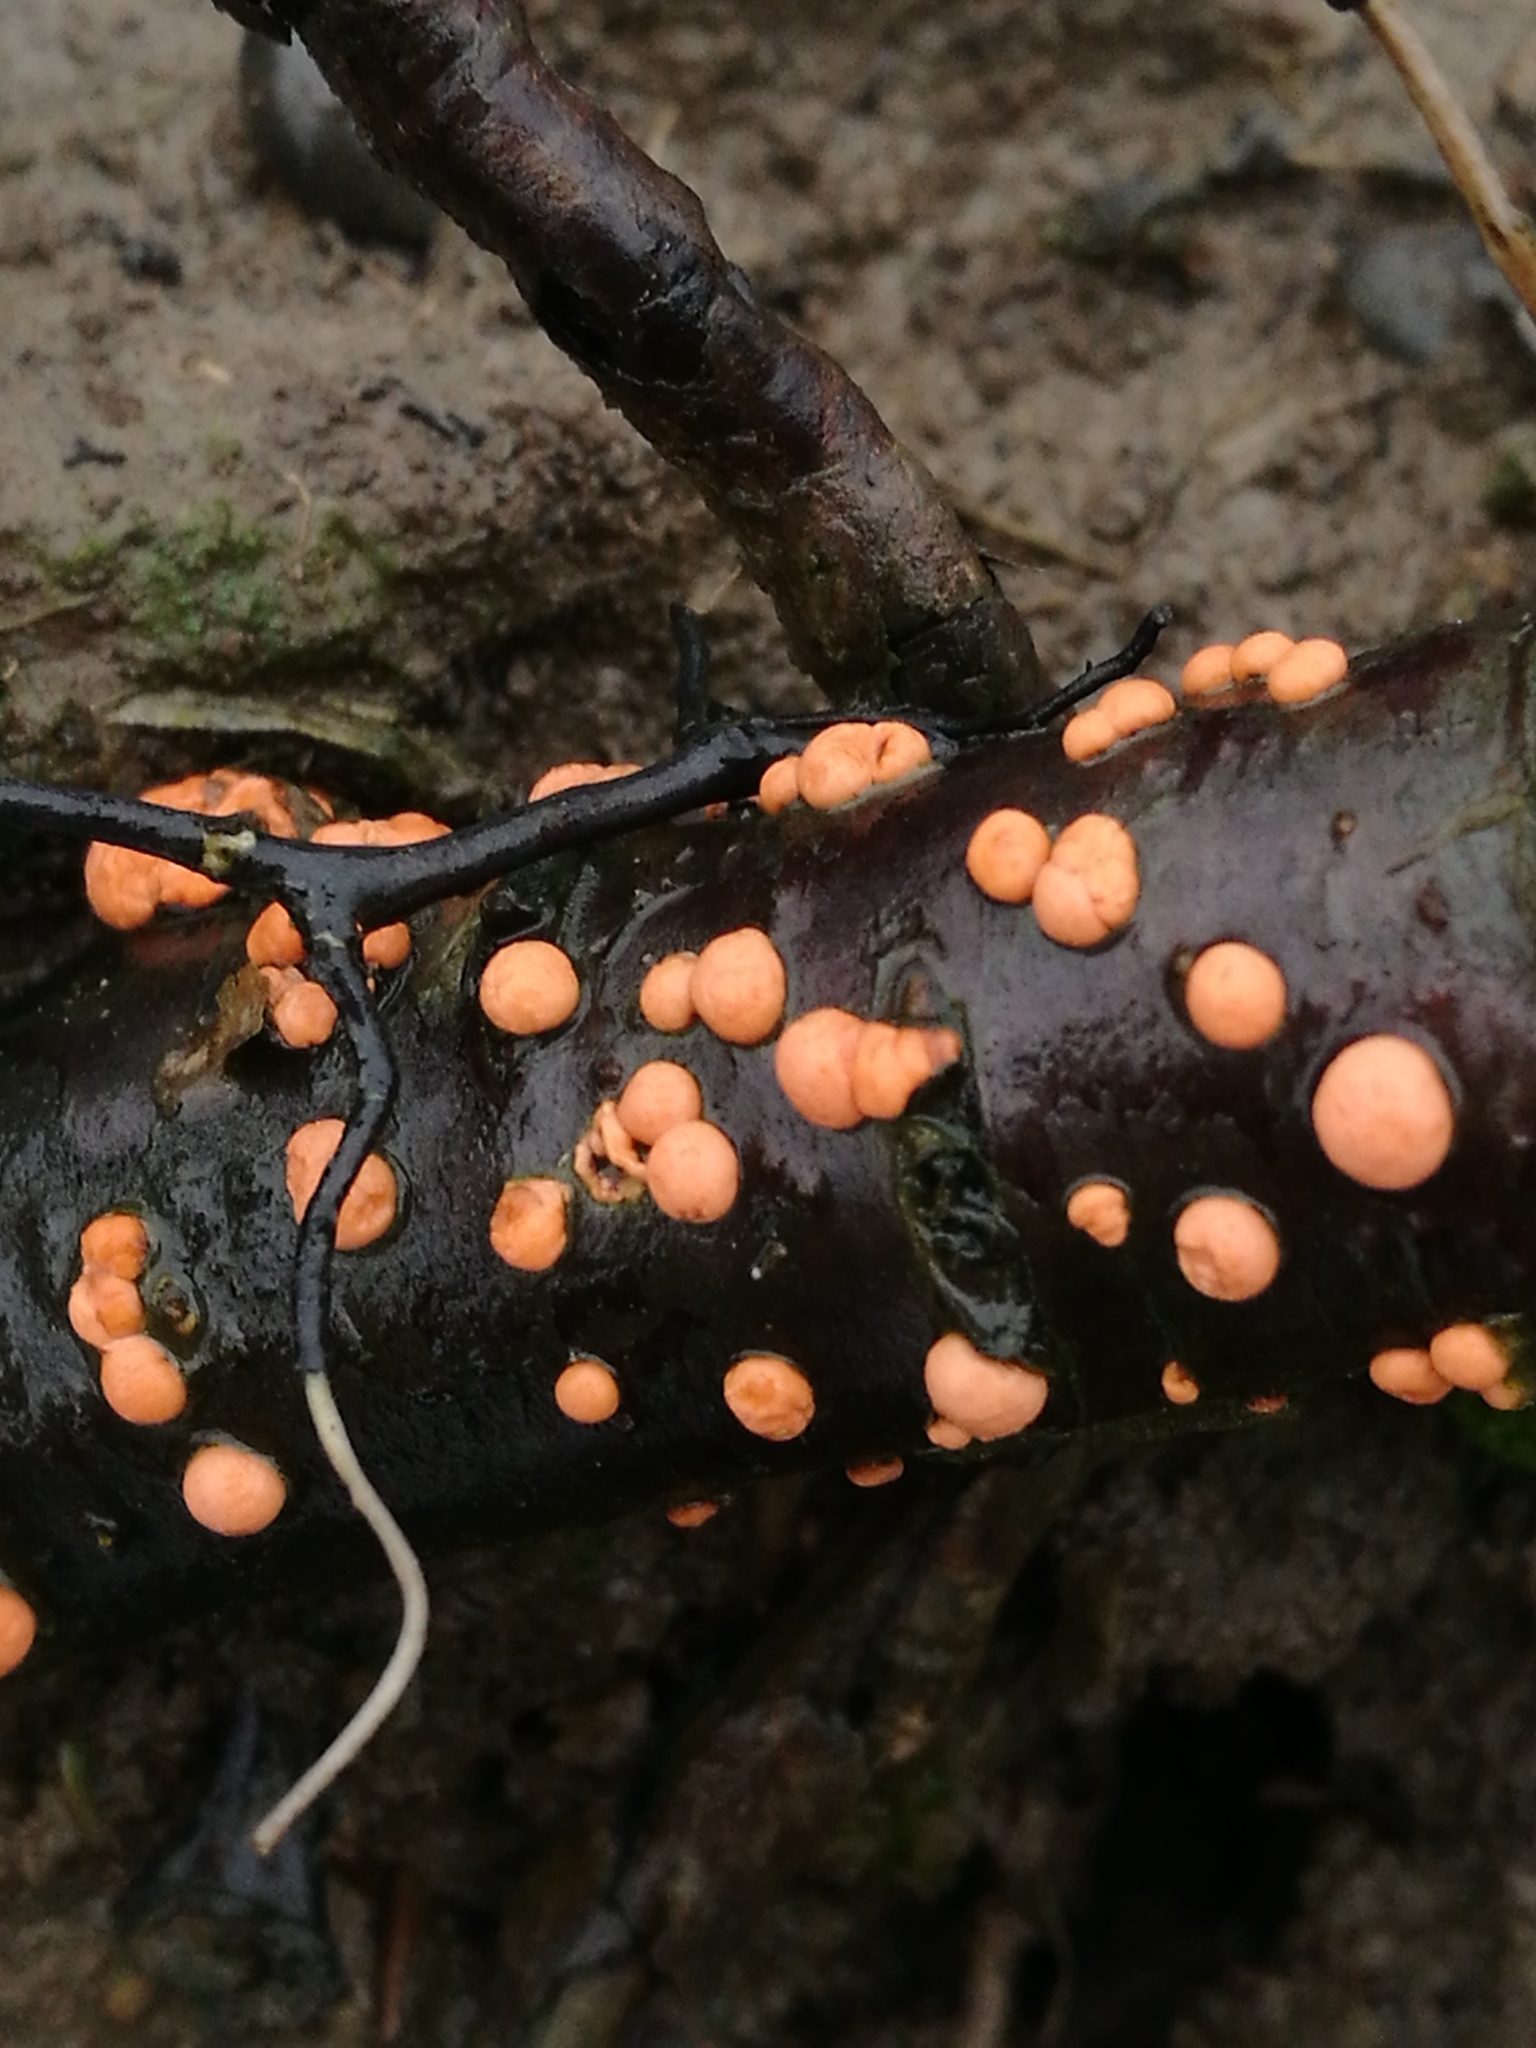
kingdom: Fungi
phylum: Ascomycota
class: Sordariomycetes
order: Hypocreales
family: Nectriaceae
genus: Nectria
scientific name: Nectria cinnabarina
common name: Coral spot
